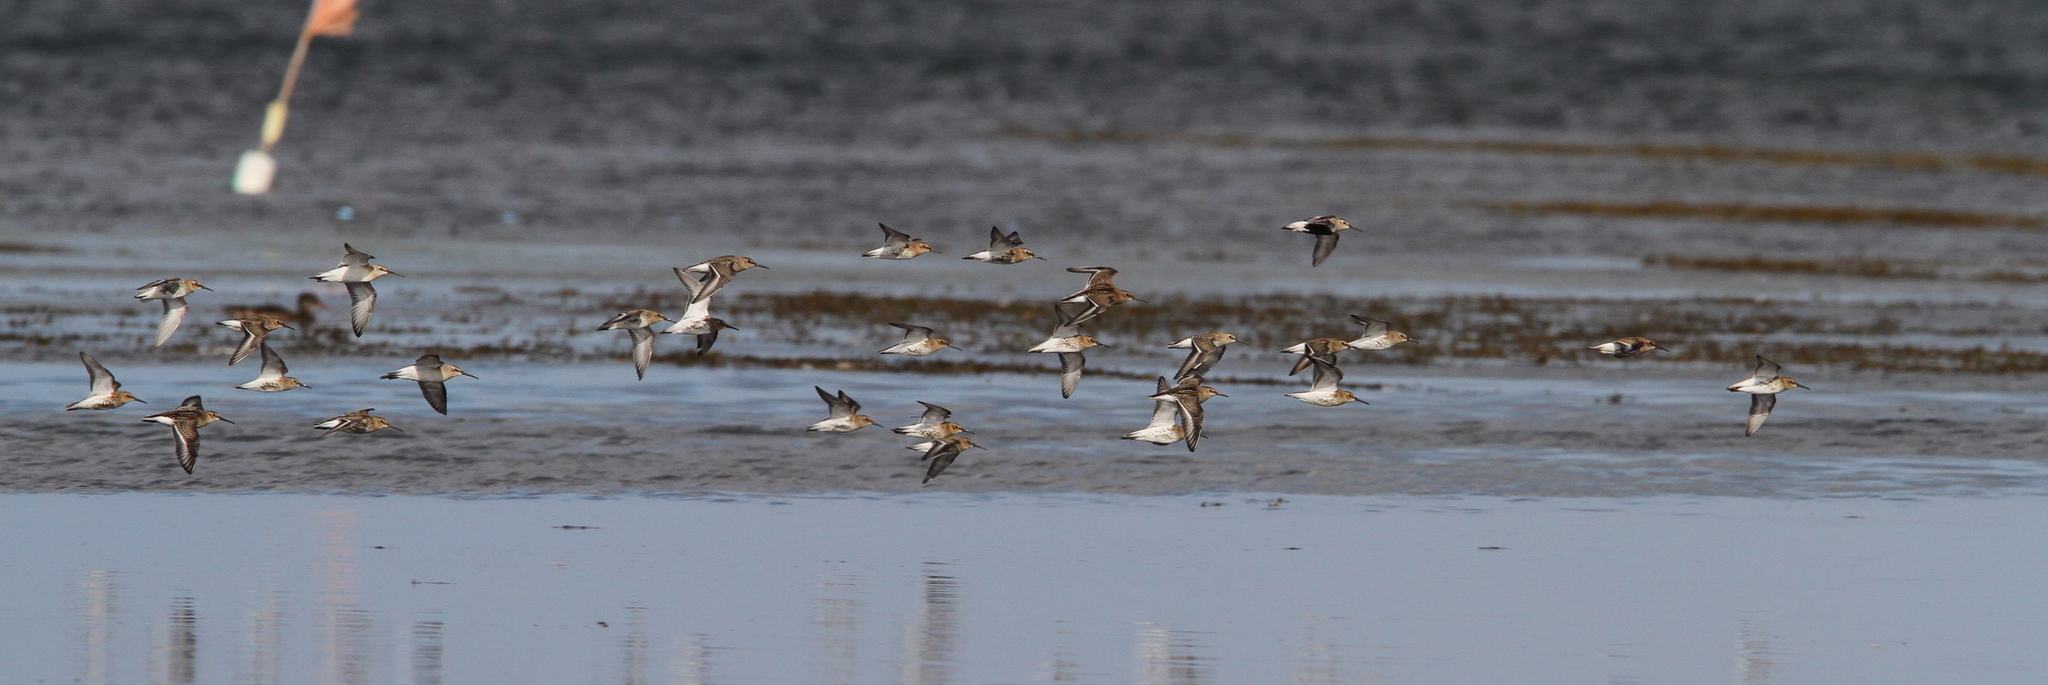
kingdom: Animalia
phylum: Chordata
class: Aves
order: Charadriiformes
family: Scolopacidae
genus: Calidris
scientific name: Calidris alpina
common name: Dunlin
